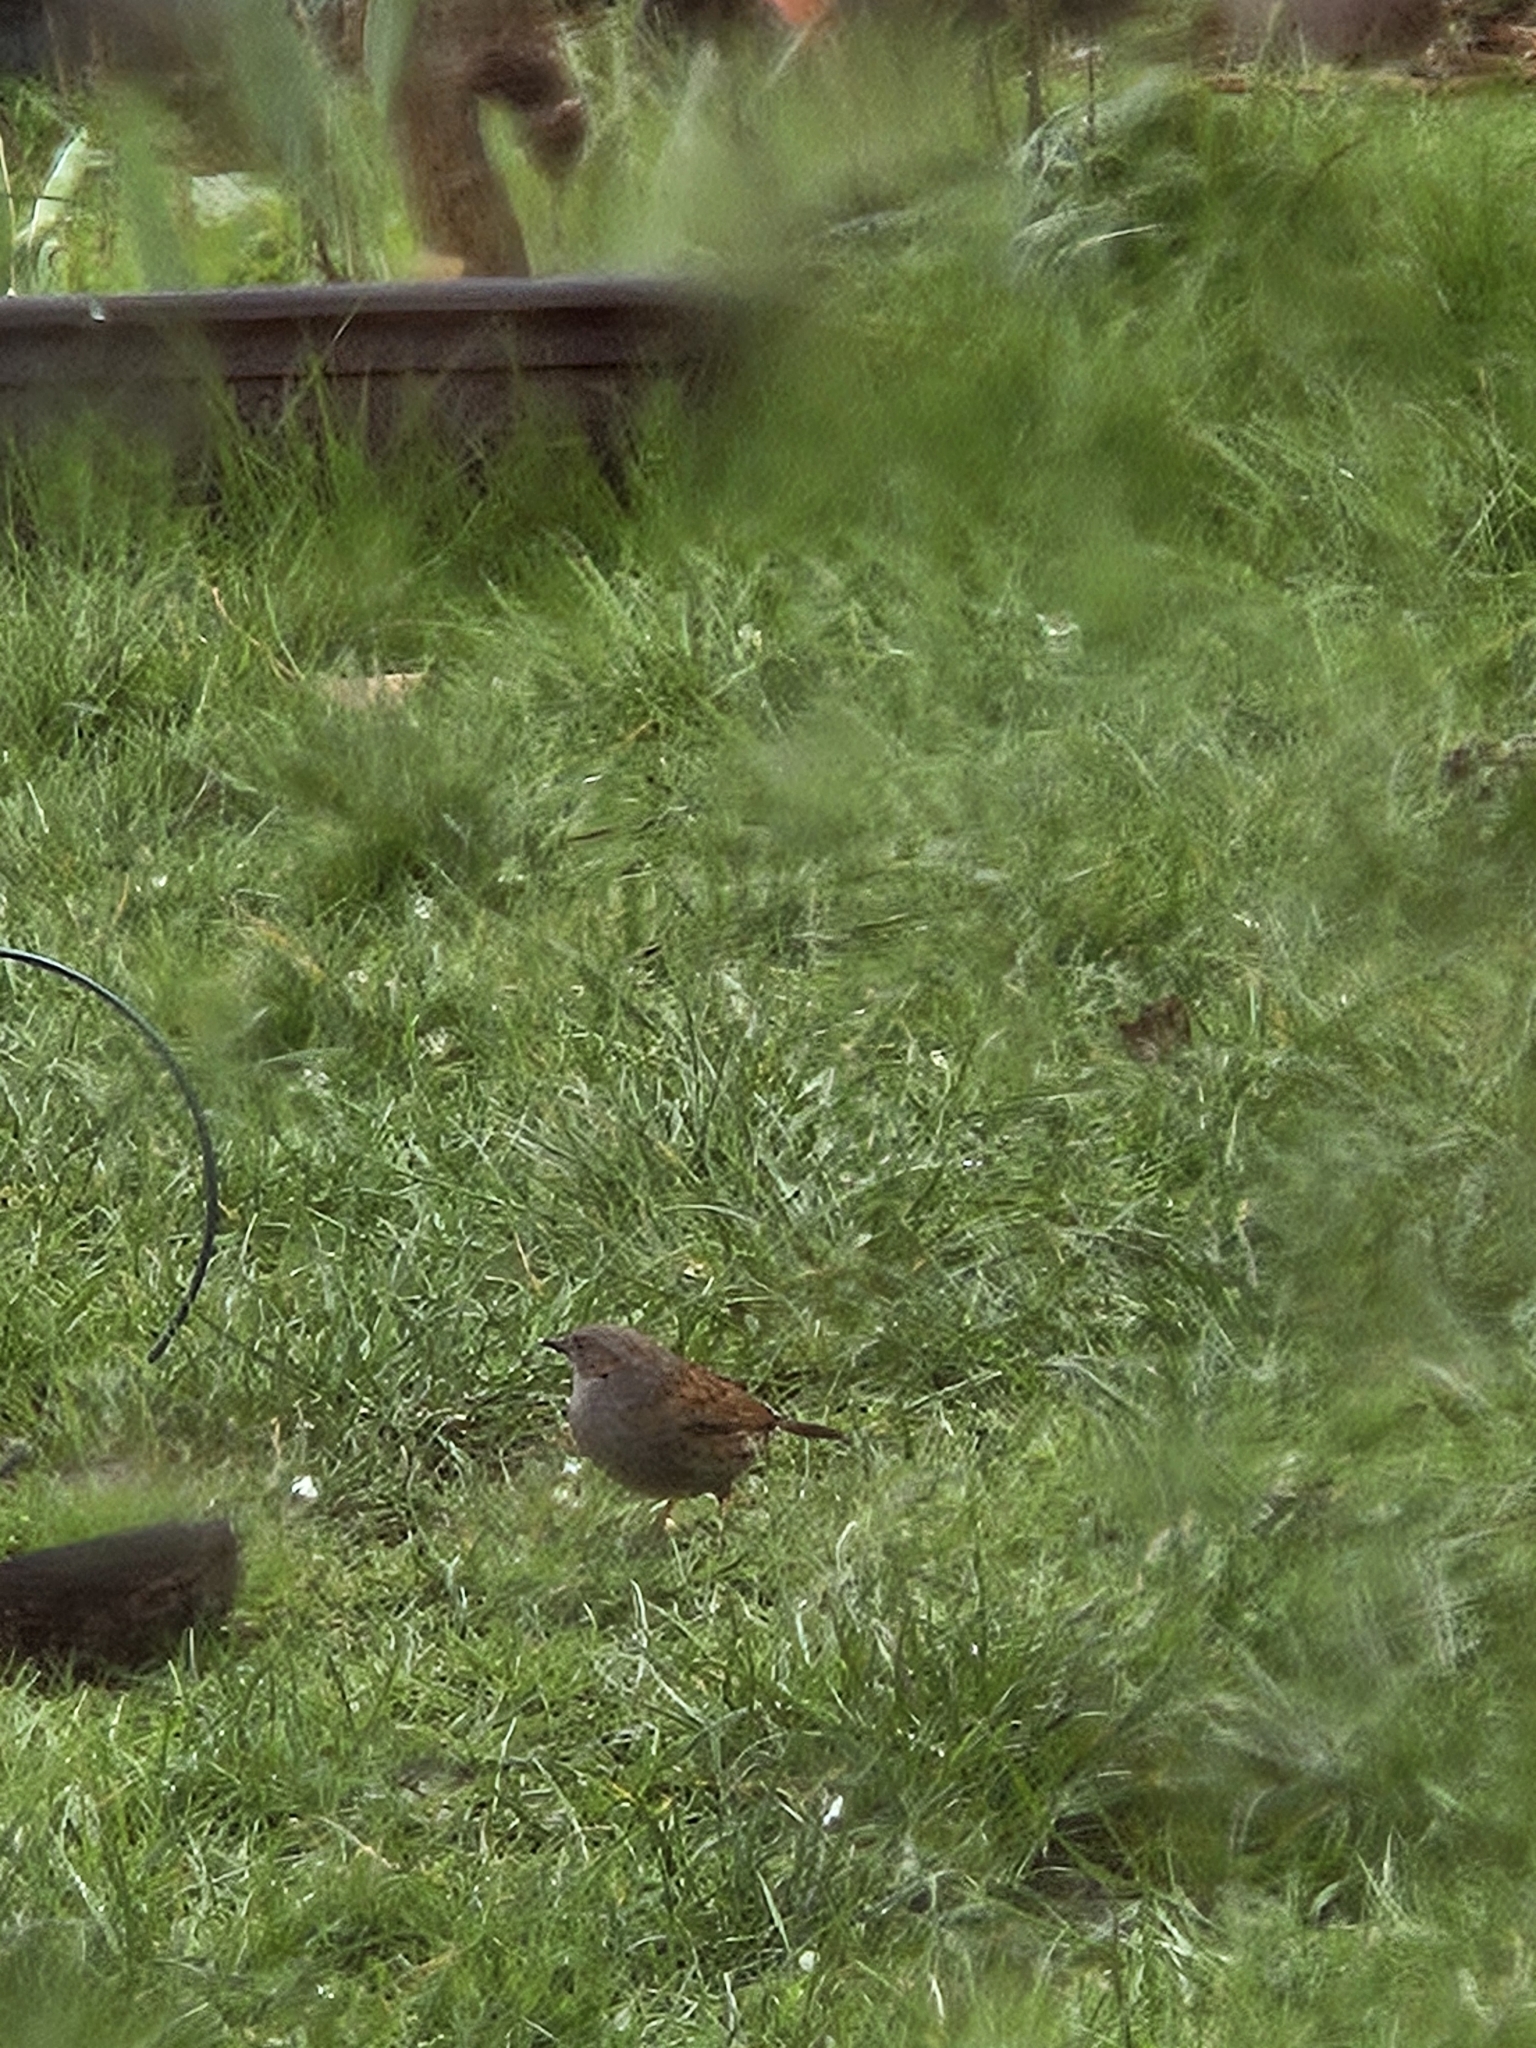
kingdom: Animalia
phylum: Chordata
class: Aves
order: Passeriformes
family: Prunellidae
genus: Prunella
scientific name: Prunella modularis
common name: Dunnock
